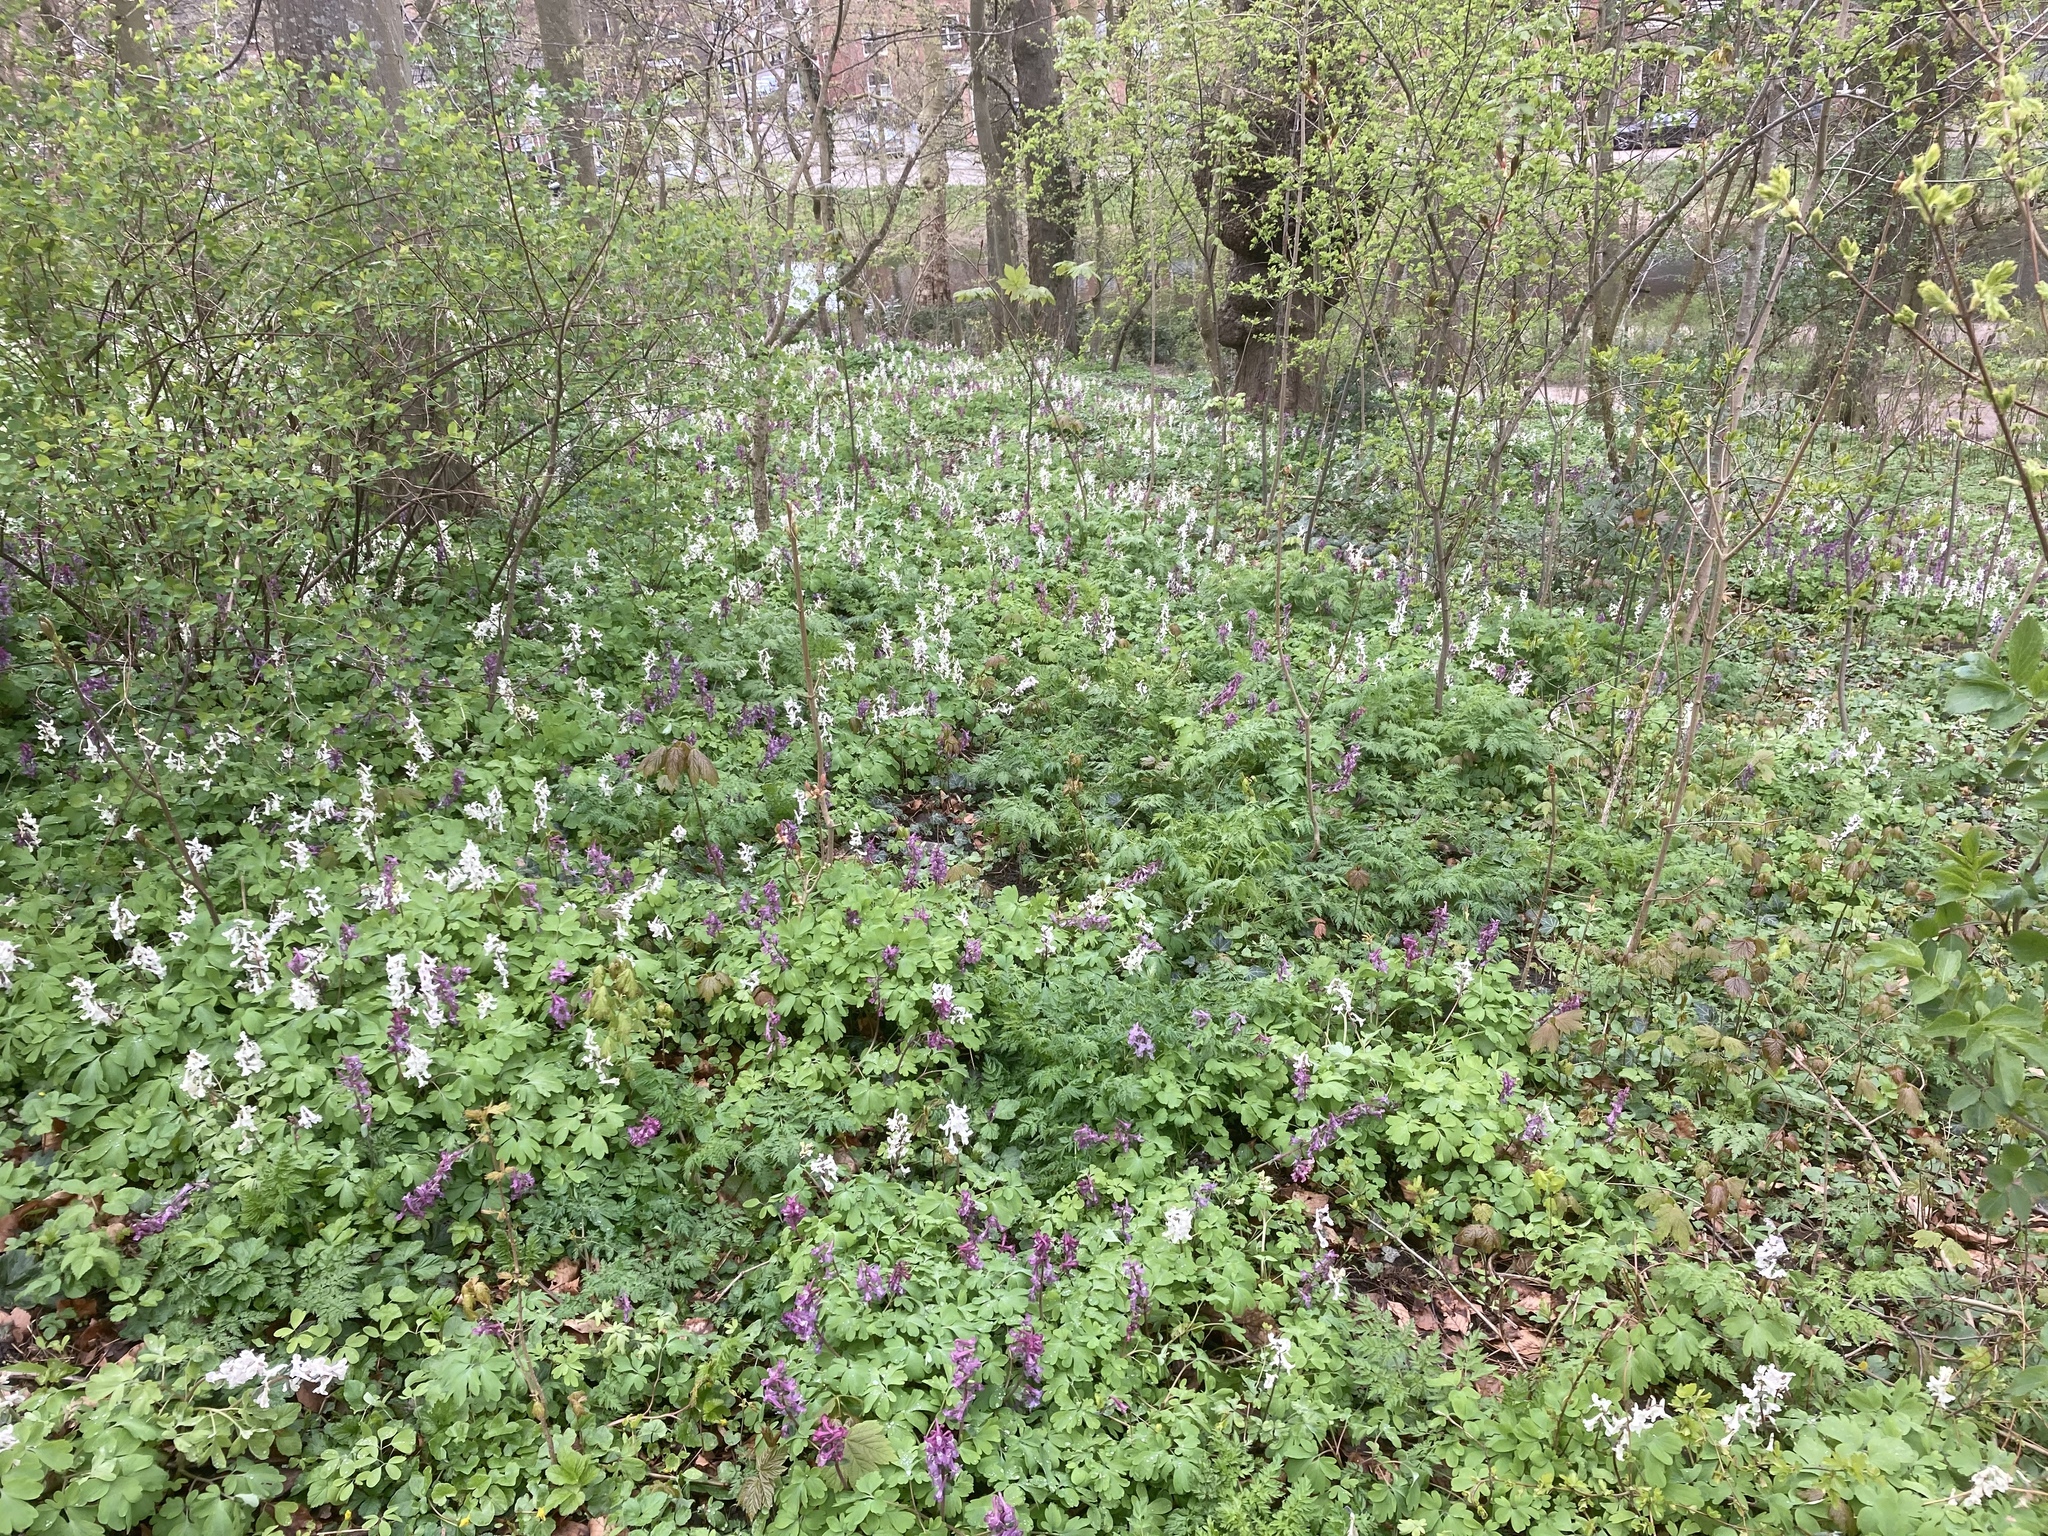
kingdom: Plantae
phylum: Tracheophyta
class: Magnoliopsida
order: Ranunculales
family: Papaveraceae
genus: Corydalis
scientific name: Corydalis cava
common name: Hollowroot
